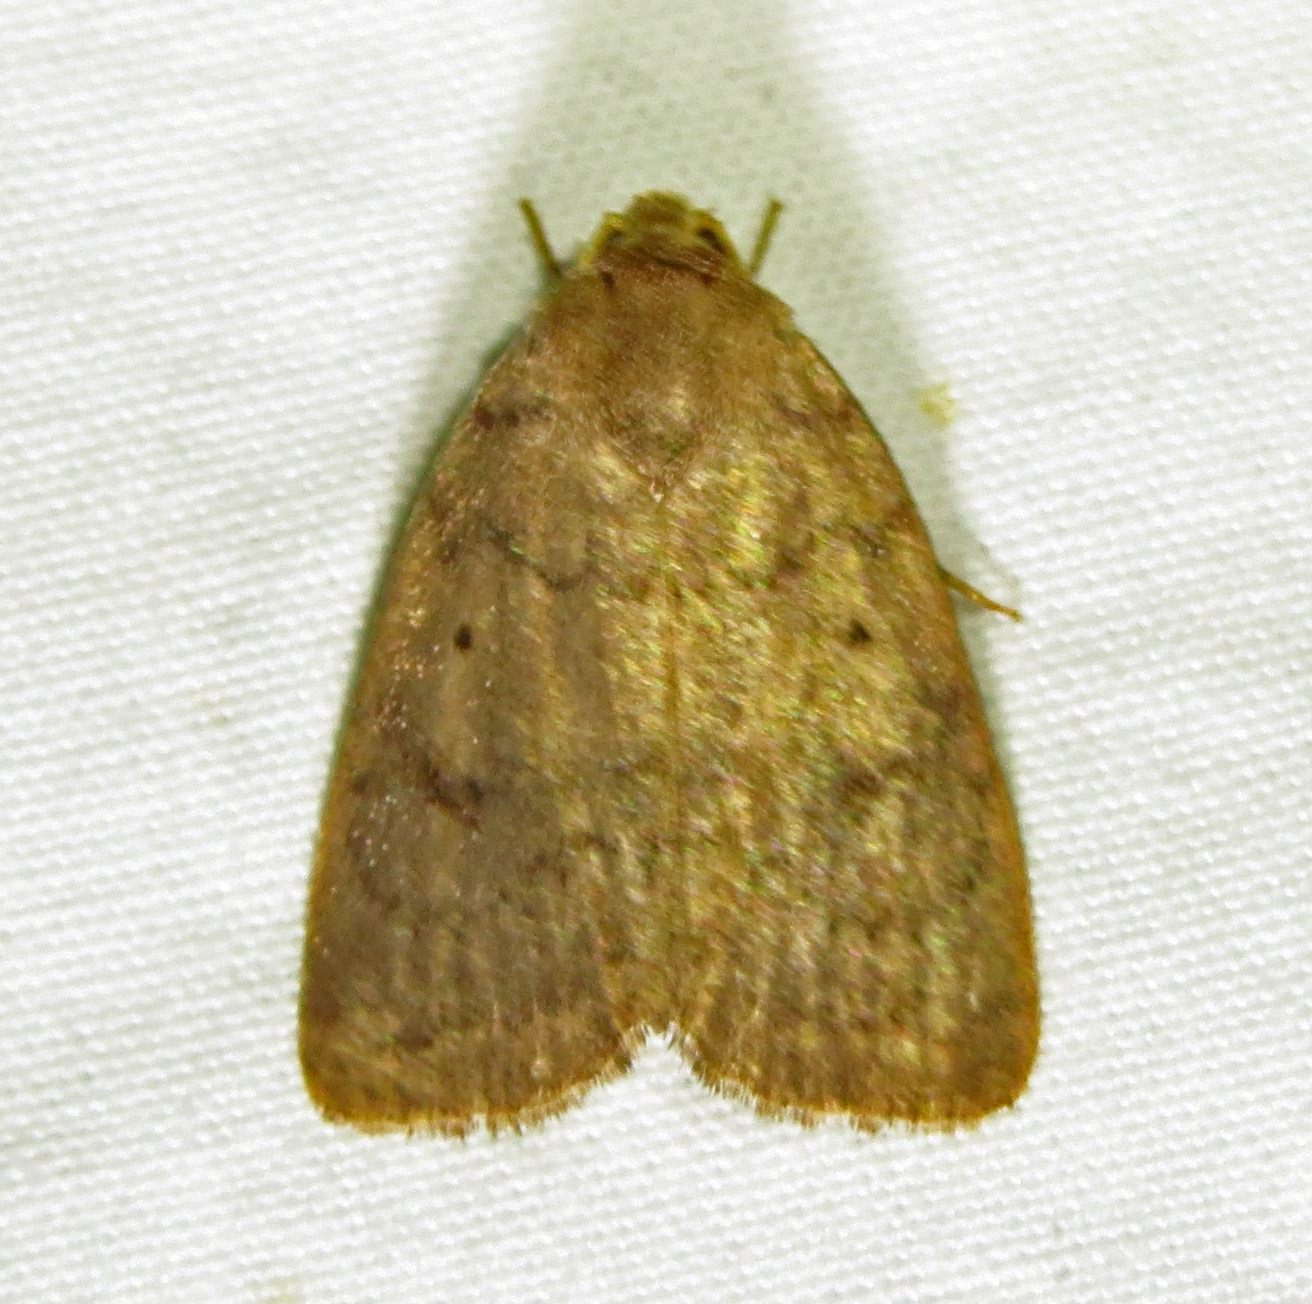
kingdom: Animalia
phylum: Arthropoda
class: Insecta
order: Lepidoptera
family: Noctuidae
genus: Athetis
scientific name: Athetis tarda
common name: Slowpoke moth
